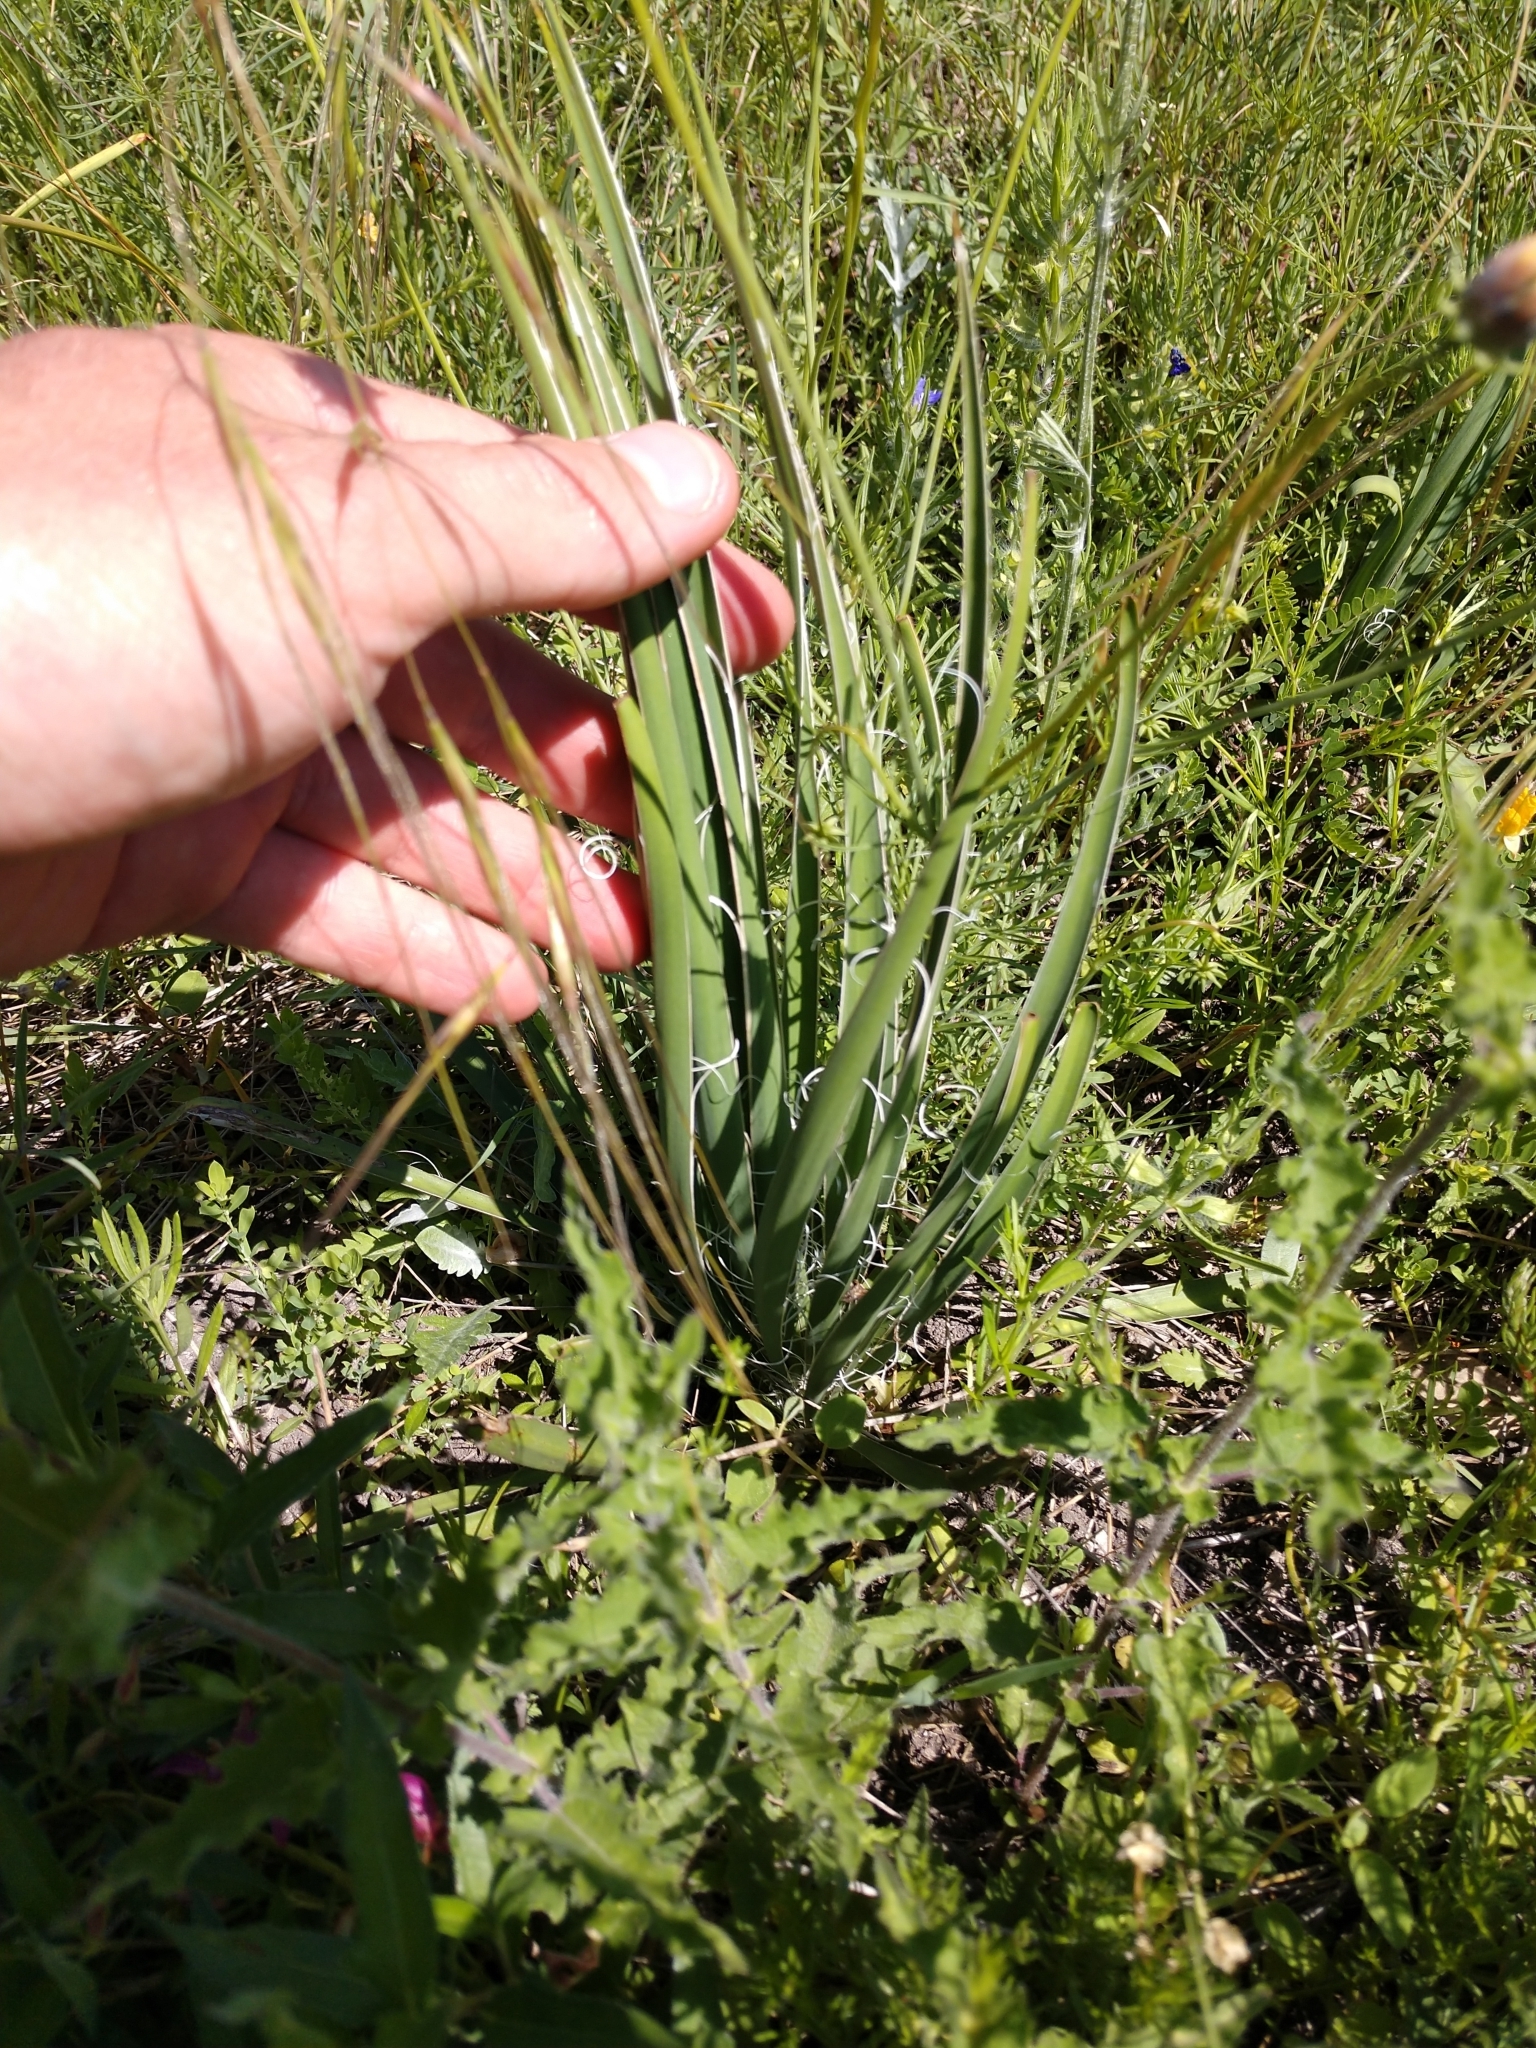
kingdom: Plantae
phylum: Tracheophyta
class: Liliopsida
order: Asparagales
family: Asparagaceae
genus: Yucca
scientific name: Yucca constricta
